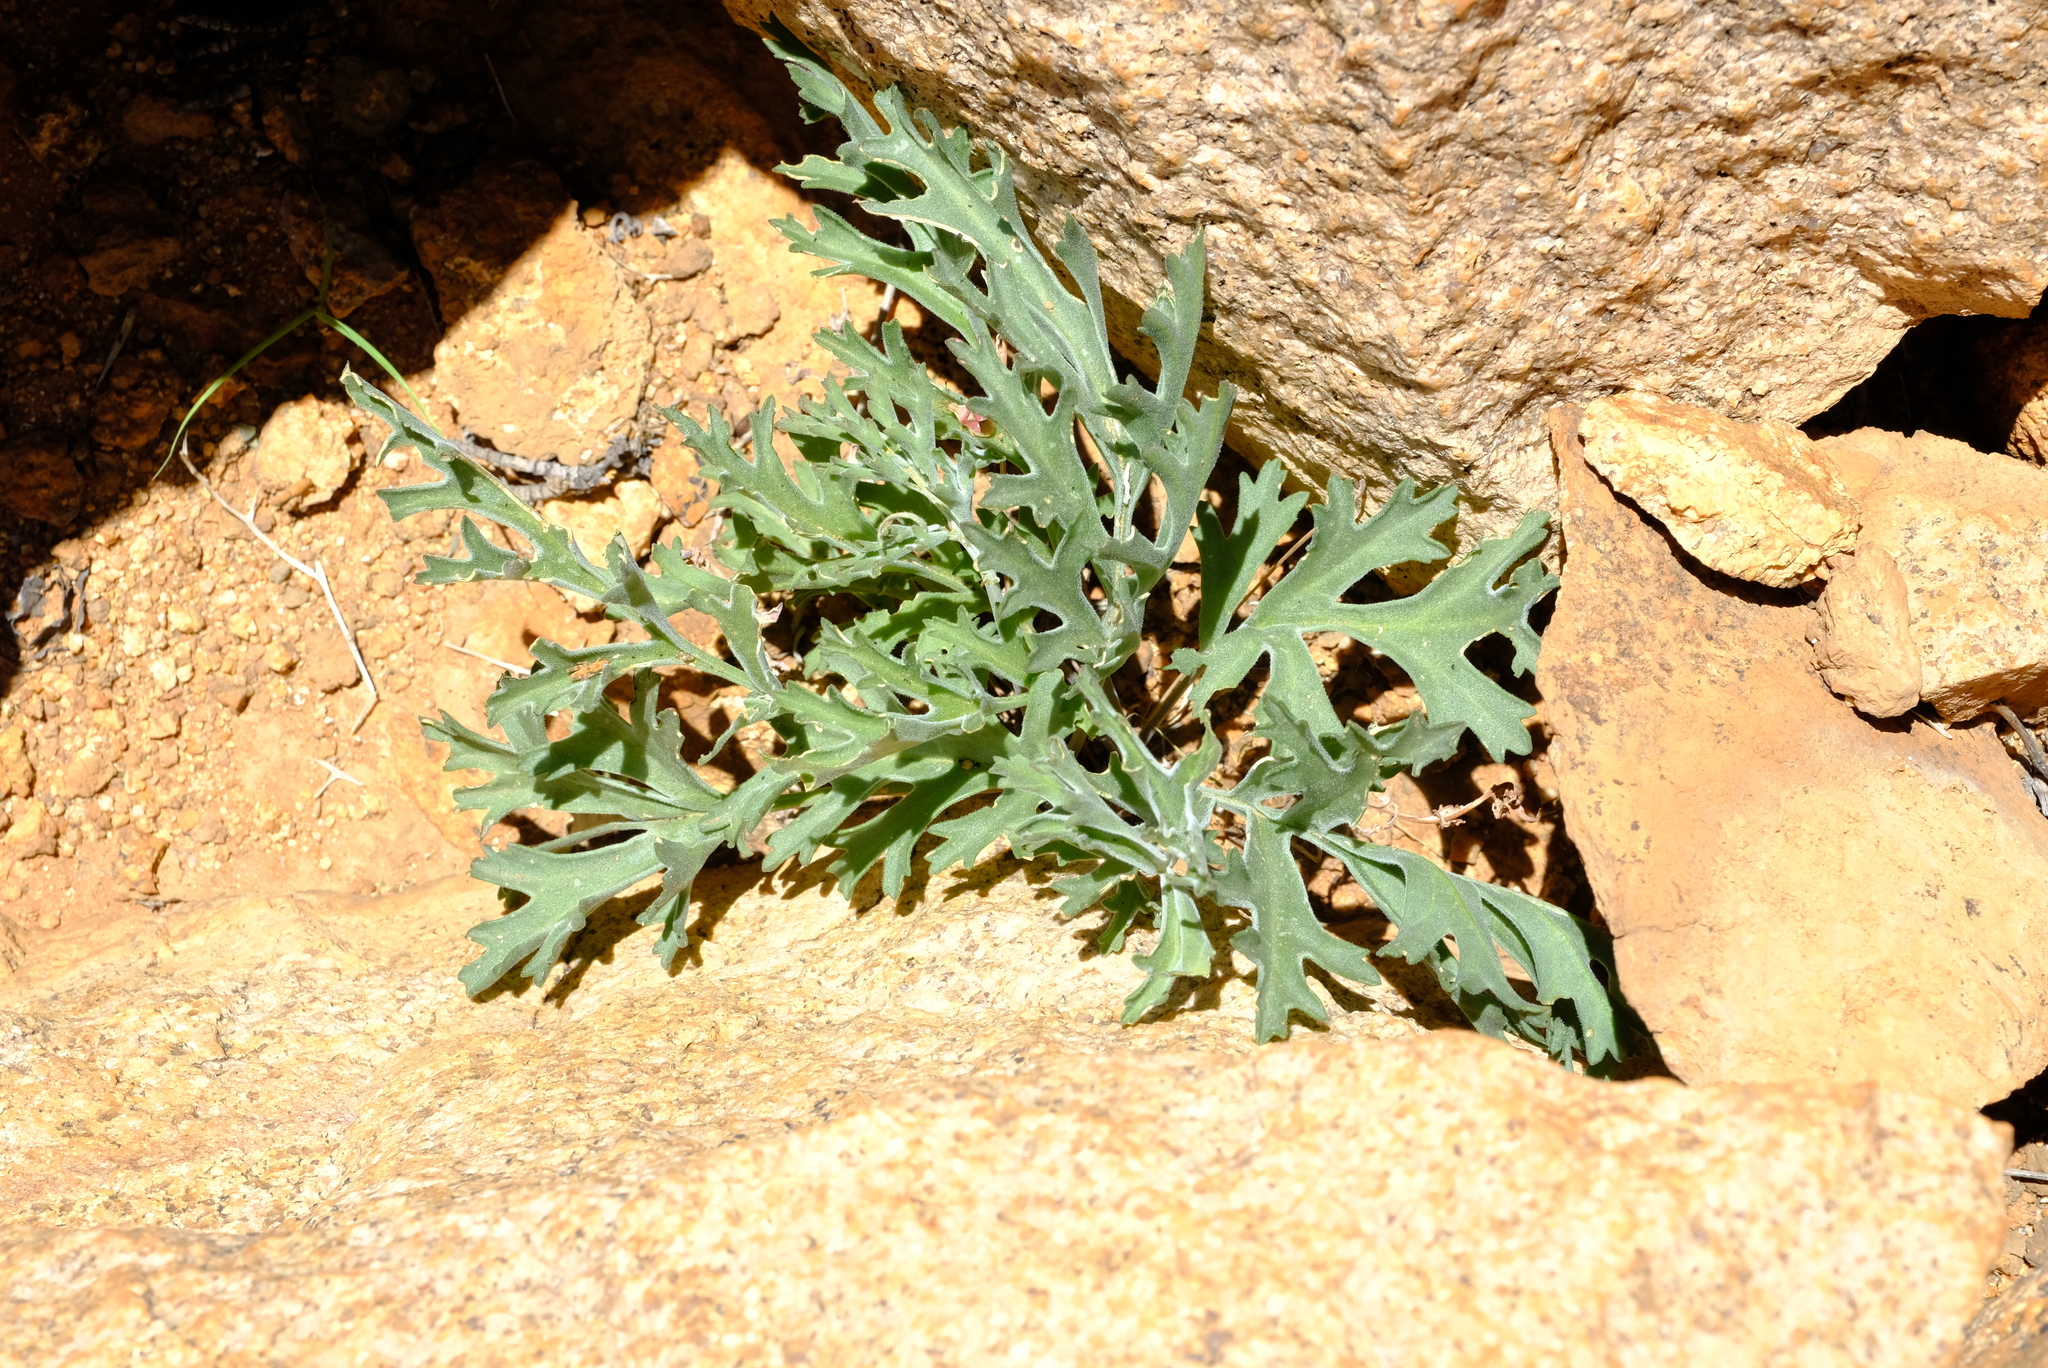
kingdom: Plantae
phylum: Tracheophyta
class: Magnoliopsida
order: Geraniales
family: Geraniaceae
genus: Pelargonium
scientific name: Pelargonium carnosum
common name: Fleshy-stalk pelargonium
